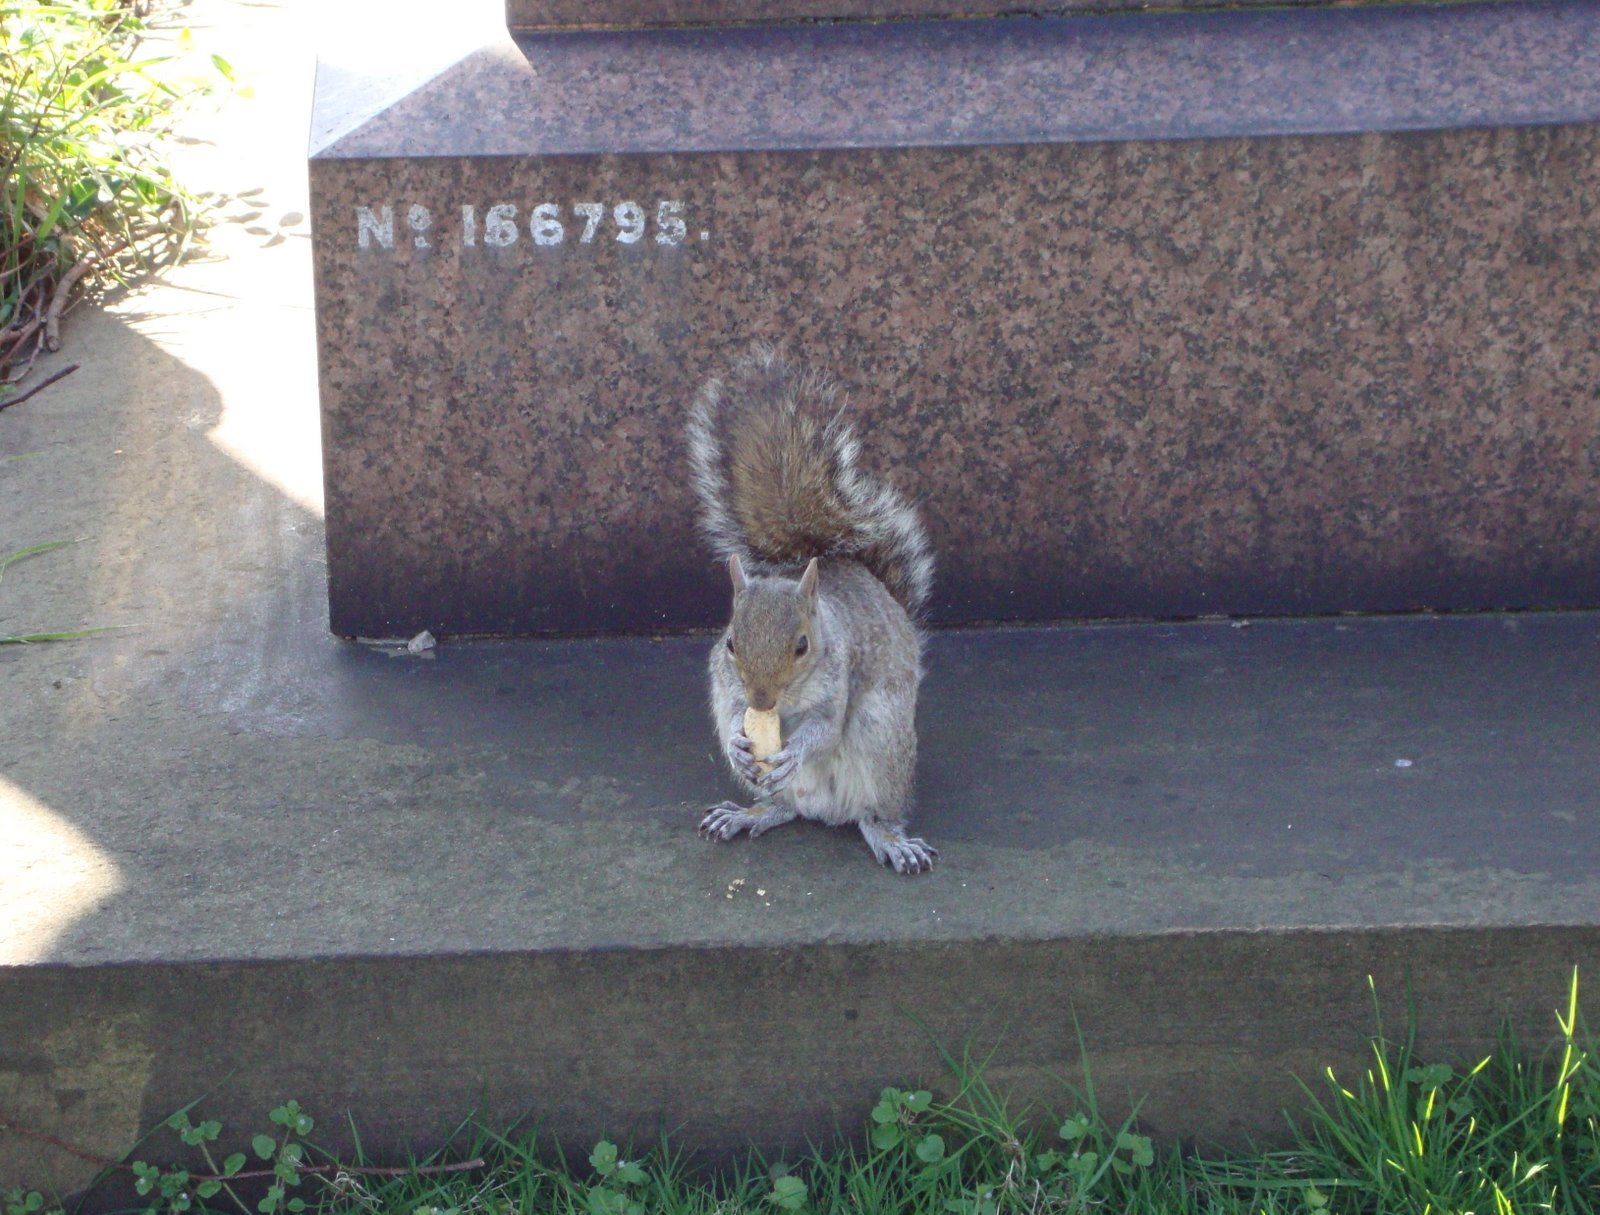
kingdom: Animalia
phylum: Chordata
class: Mammalia
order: Rodentia
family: Sciuridae
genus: Sciurus
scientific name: Sciurus carolinensis
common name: Eastern gray squirrel
